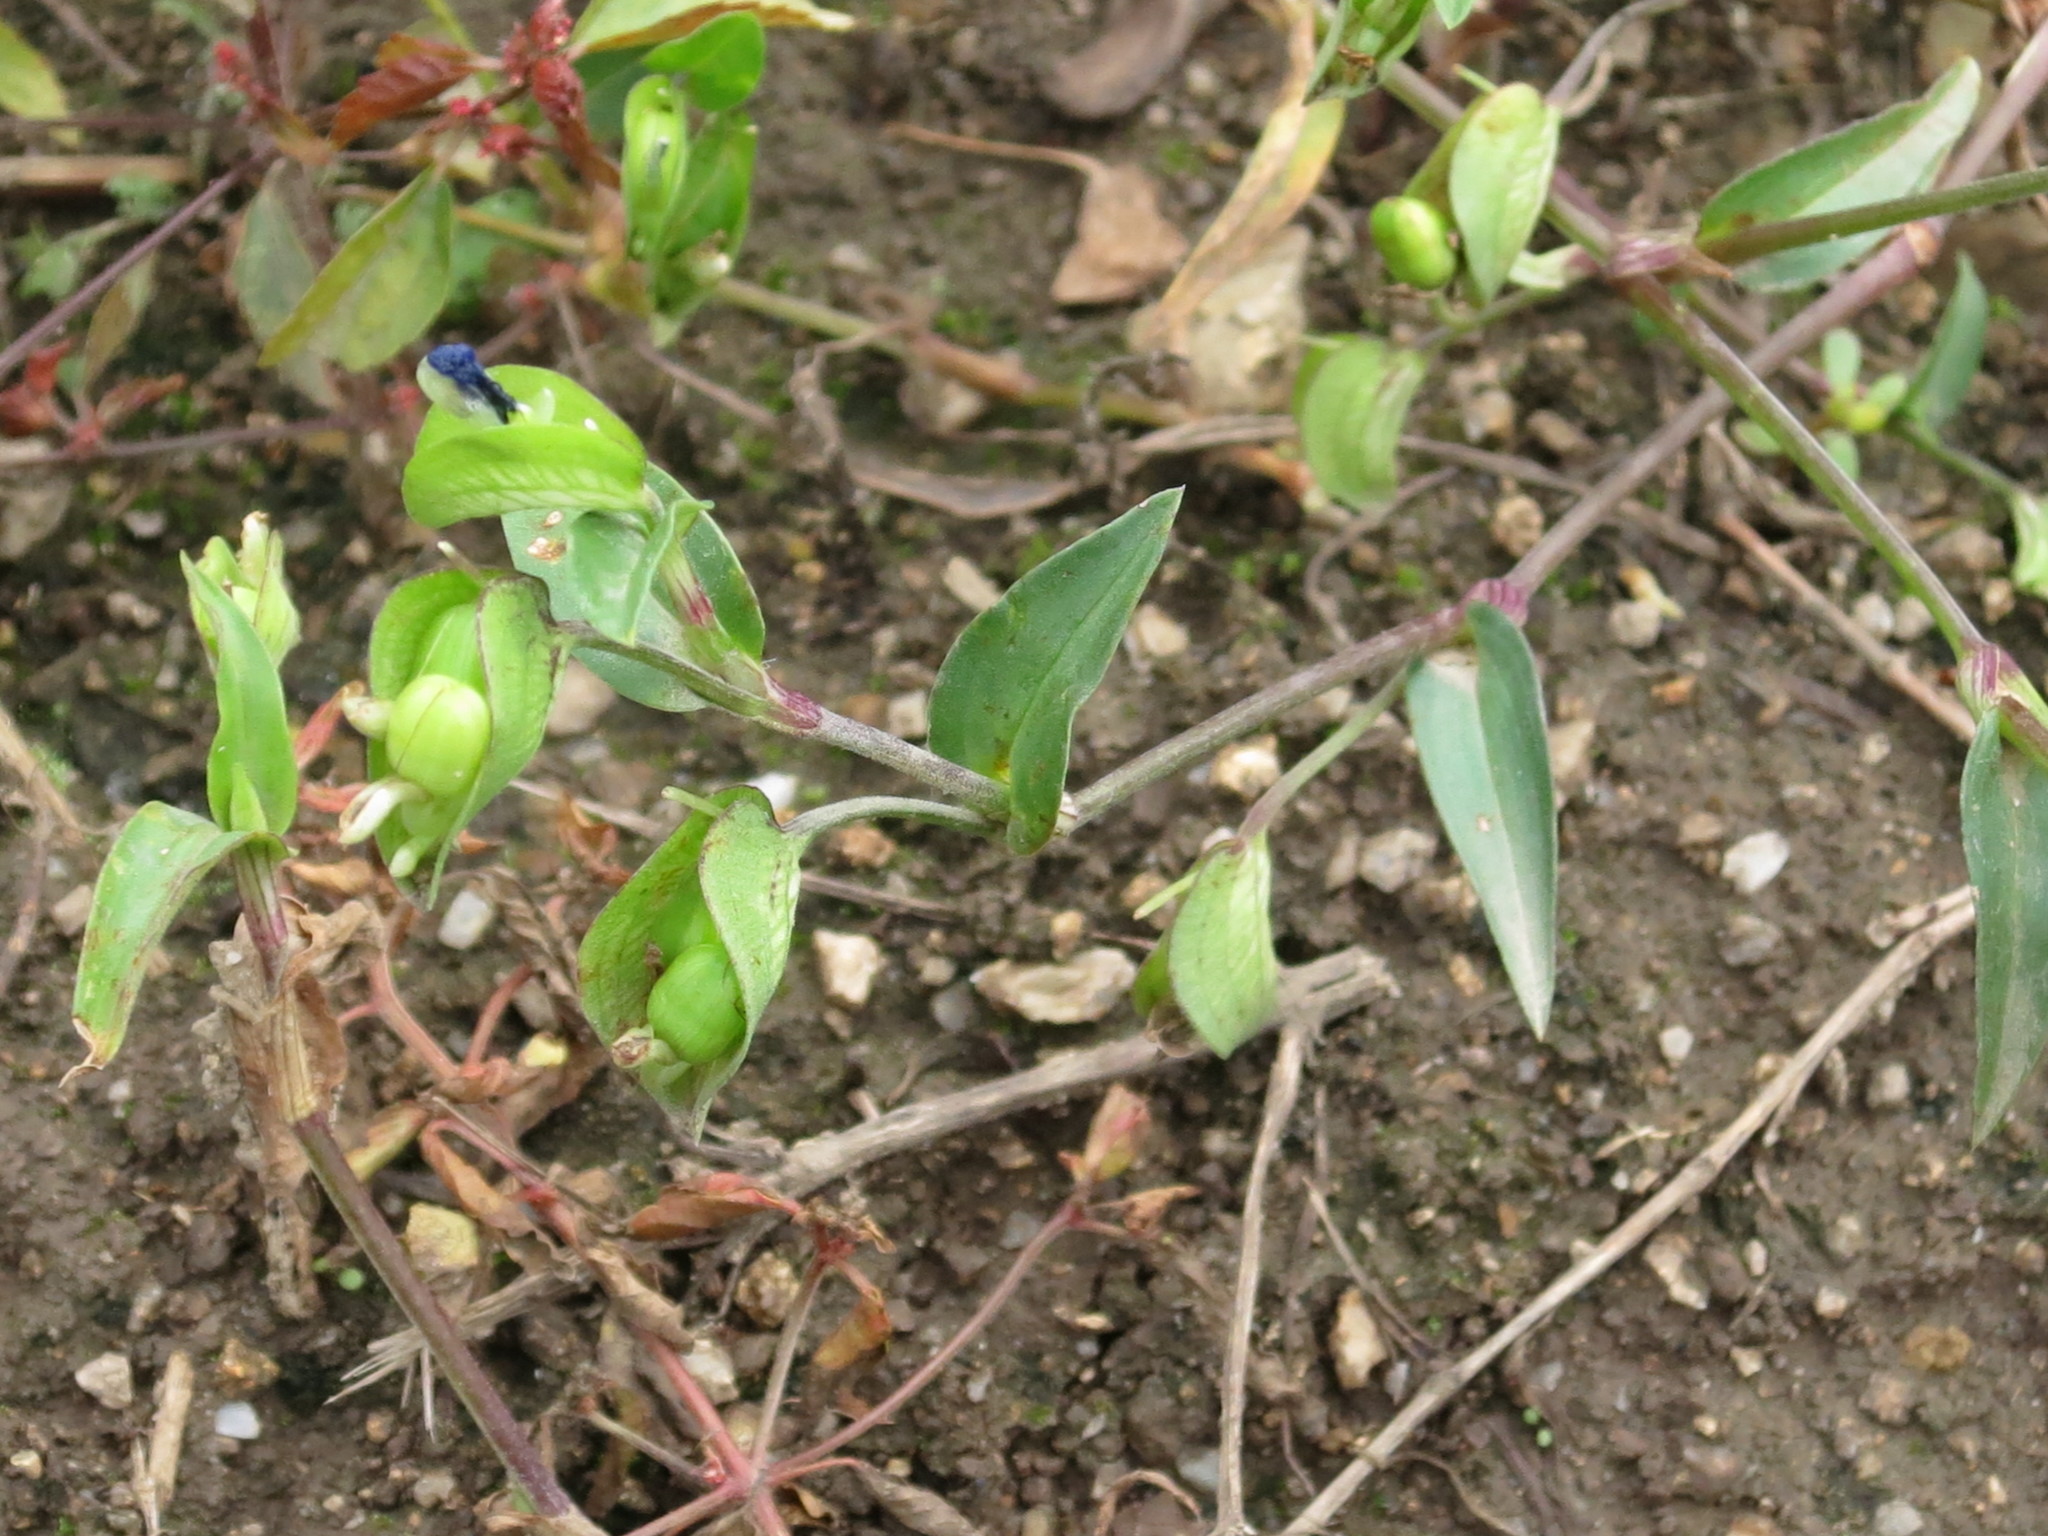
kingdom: Plantae
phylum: Tracheophyta
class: Liliopsida
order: Commelinales
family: Commelinaceae
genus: Commelina
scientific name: Commelina communis
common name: Asiatic dayflower
